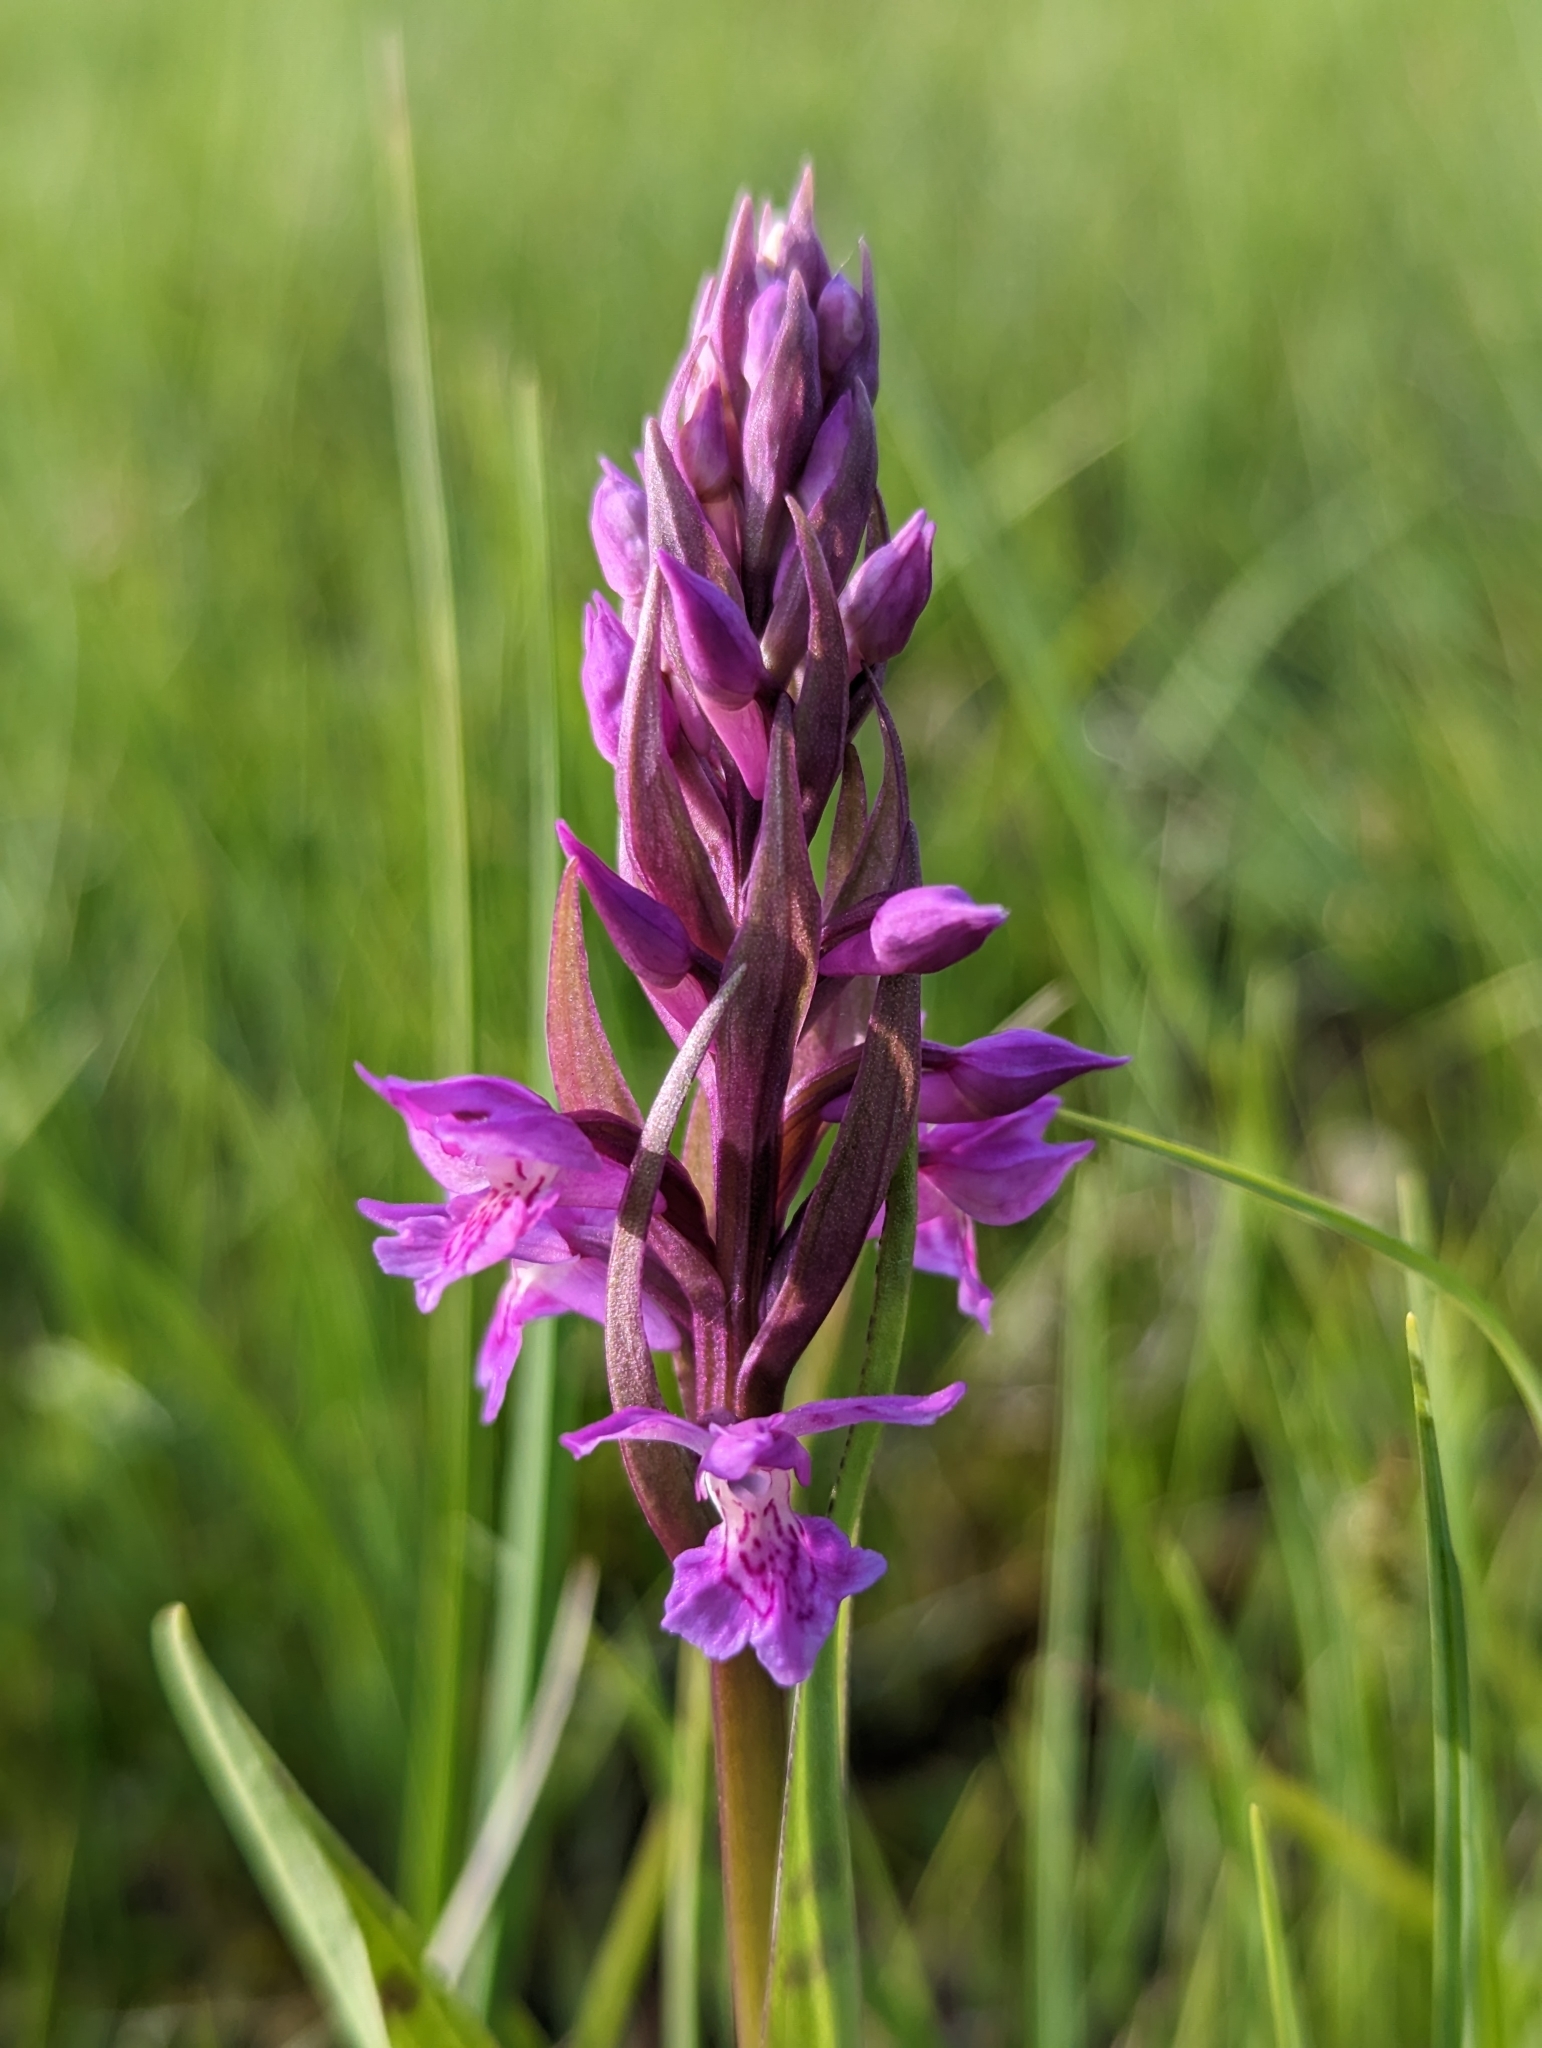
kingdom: Plantae
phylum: Tracheophyta
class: Liliopsida
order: Asparagales
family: Orchidaceae
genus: Dactylorhiza
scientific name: Dactylorhiza majalis
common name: Marsh orchid
